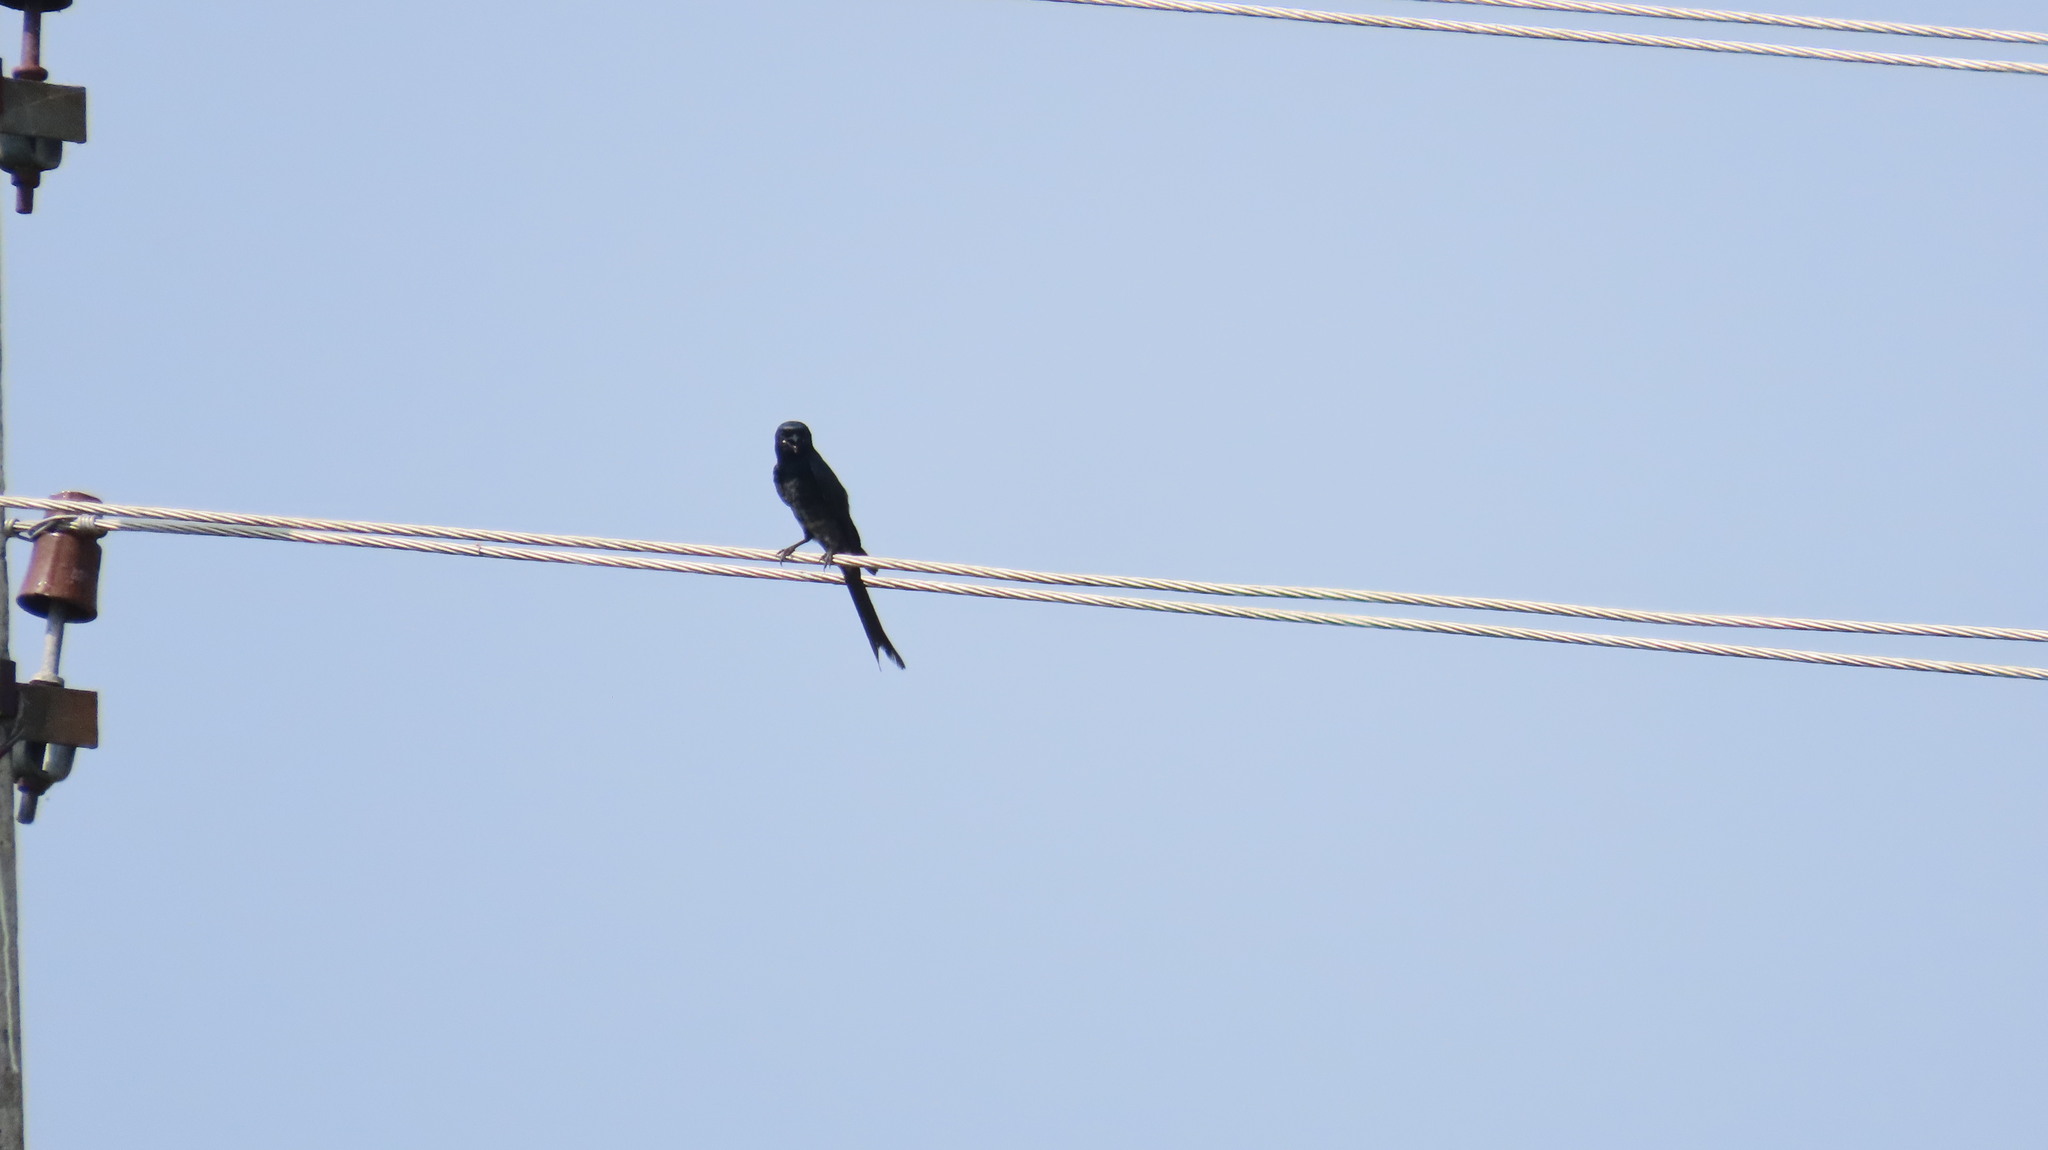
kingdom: Animalia
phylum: Chordata
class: Aves
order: Passeriformes
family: Dicruridae
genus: Dicrurus
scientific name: Dicrurus macrocercus
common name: Black drongo
